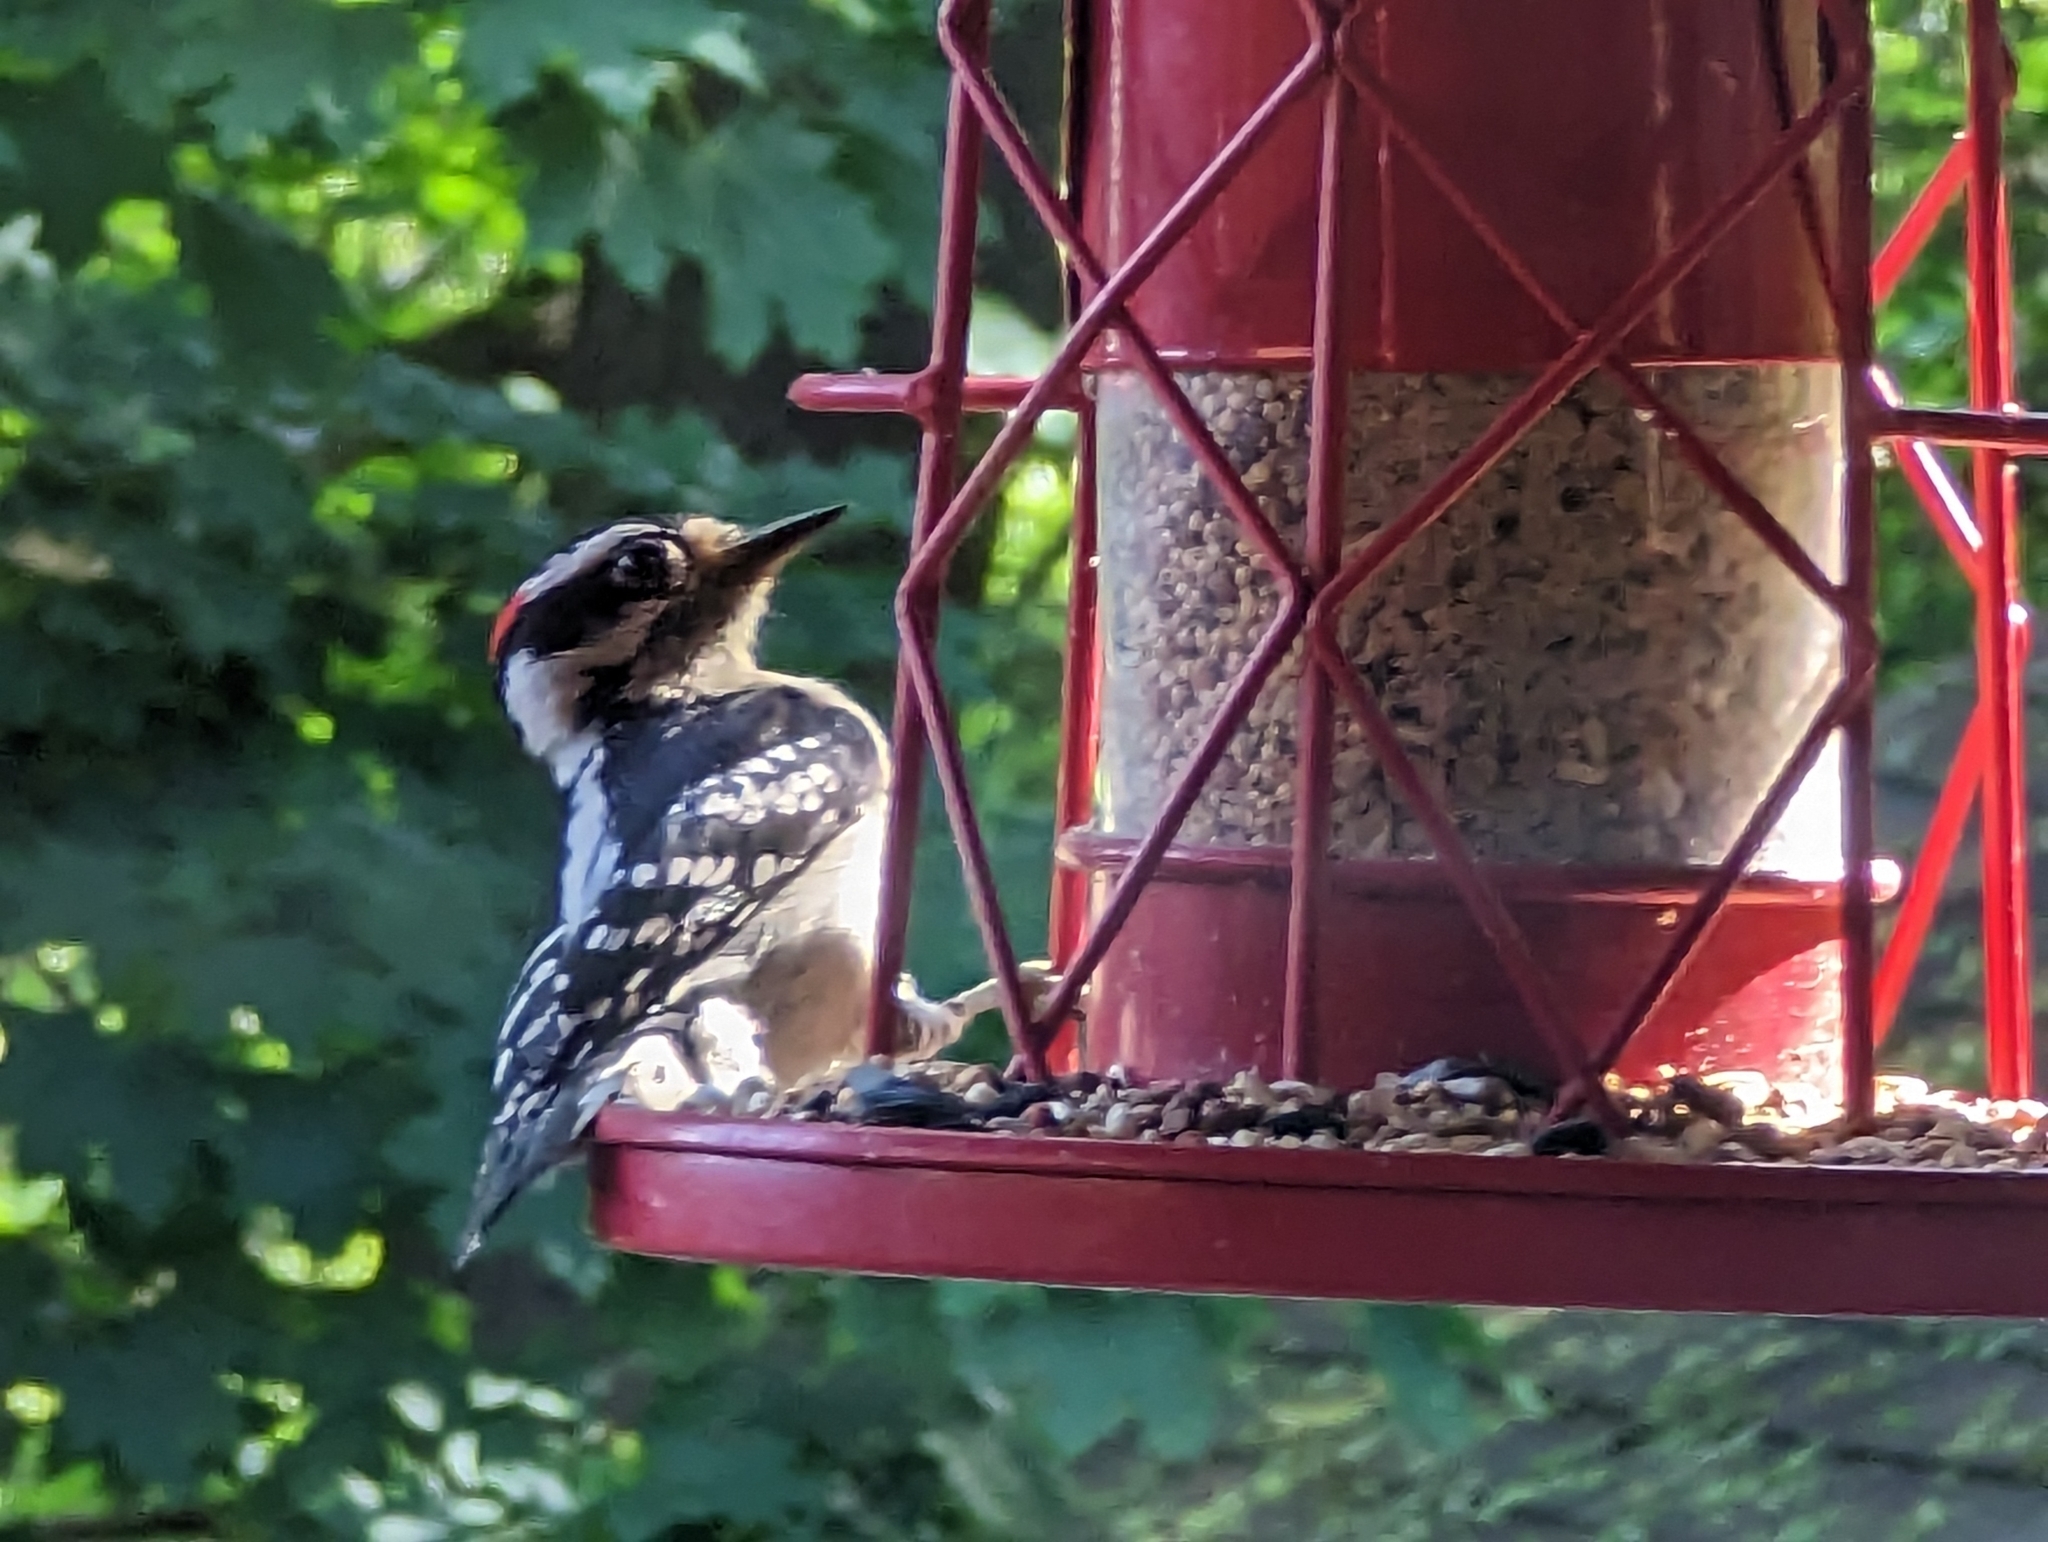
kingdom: Animalia
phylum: Chordata
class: Aves
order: Piciformes
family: Picidae
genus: Dryobates
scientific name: Dryobates pubescens
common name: Downy woodpecker
